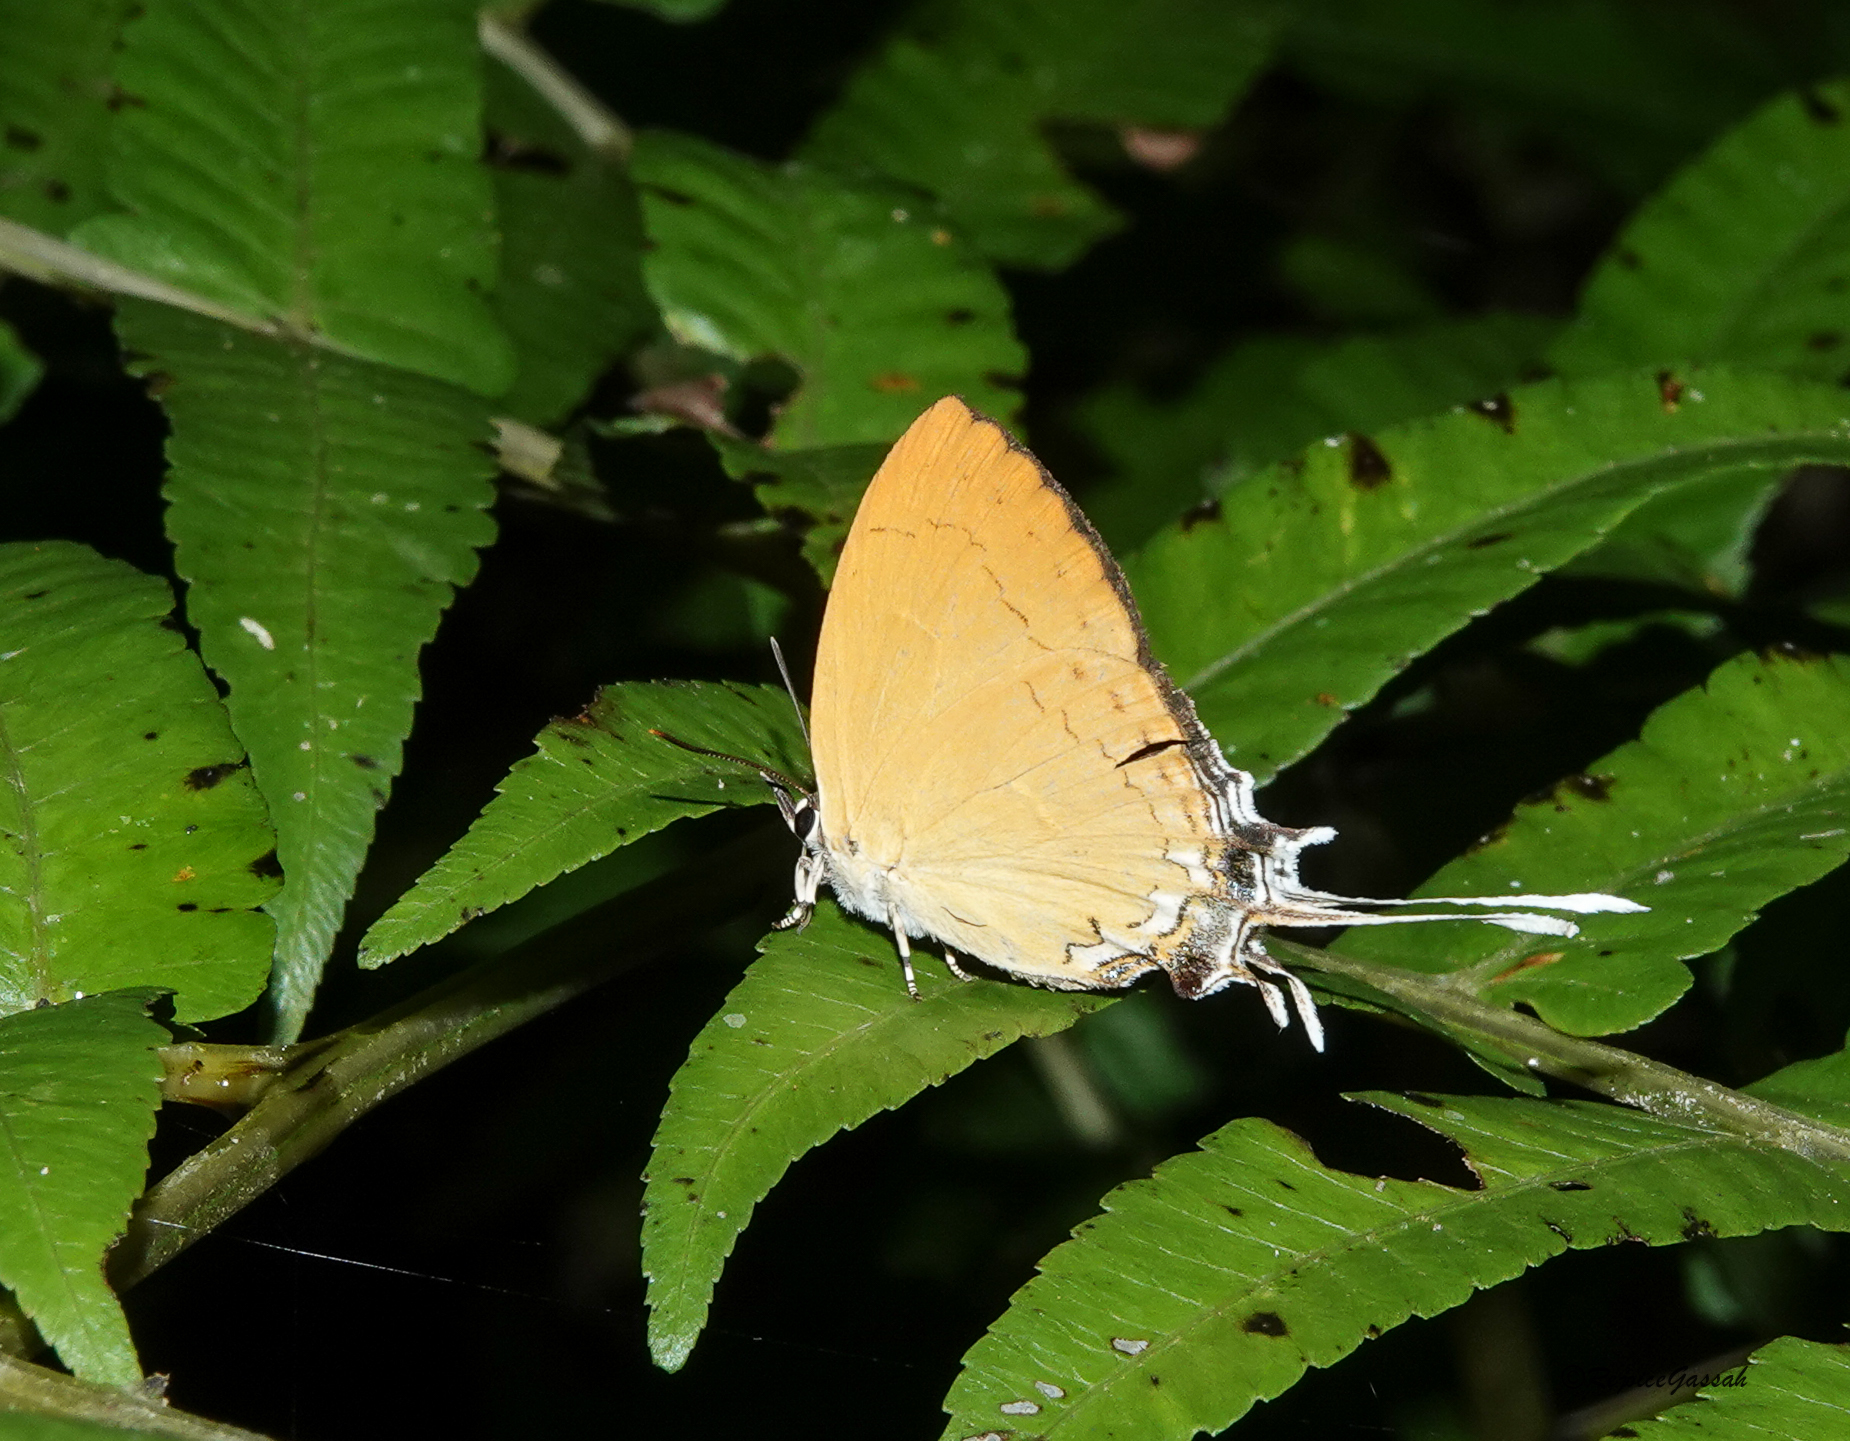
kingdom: Animalia
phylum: Arthropoda
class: Insecta
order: Lepidoptera
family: Lycaenidae
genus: Ticherra
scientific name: Ticherra acte
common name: Blue imperial
